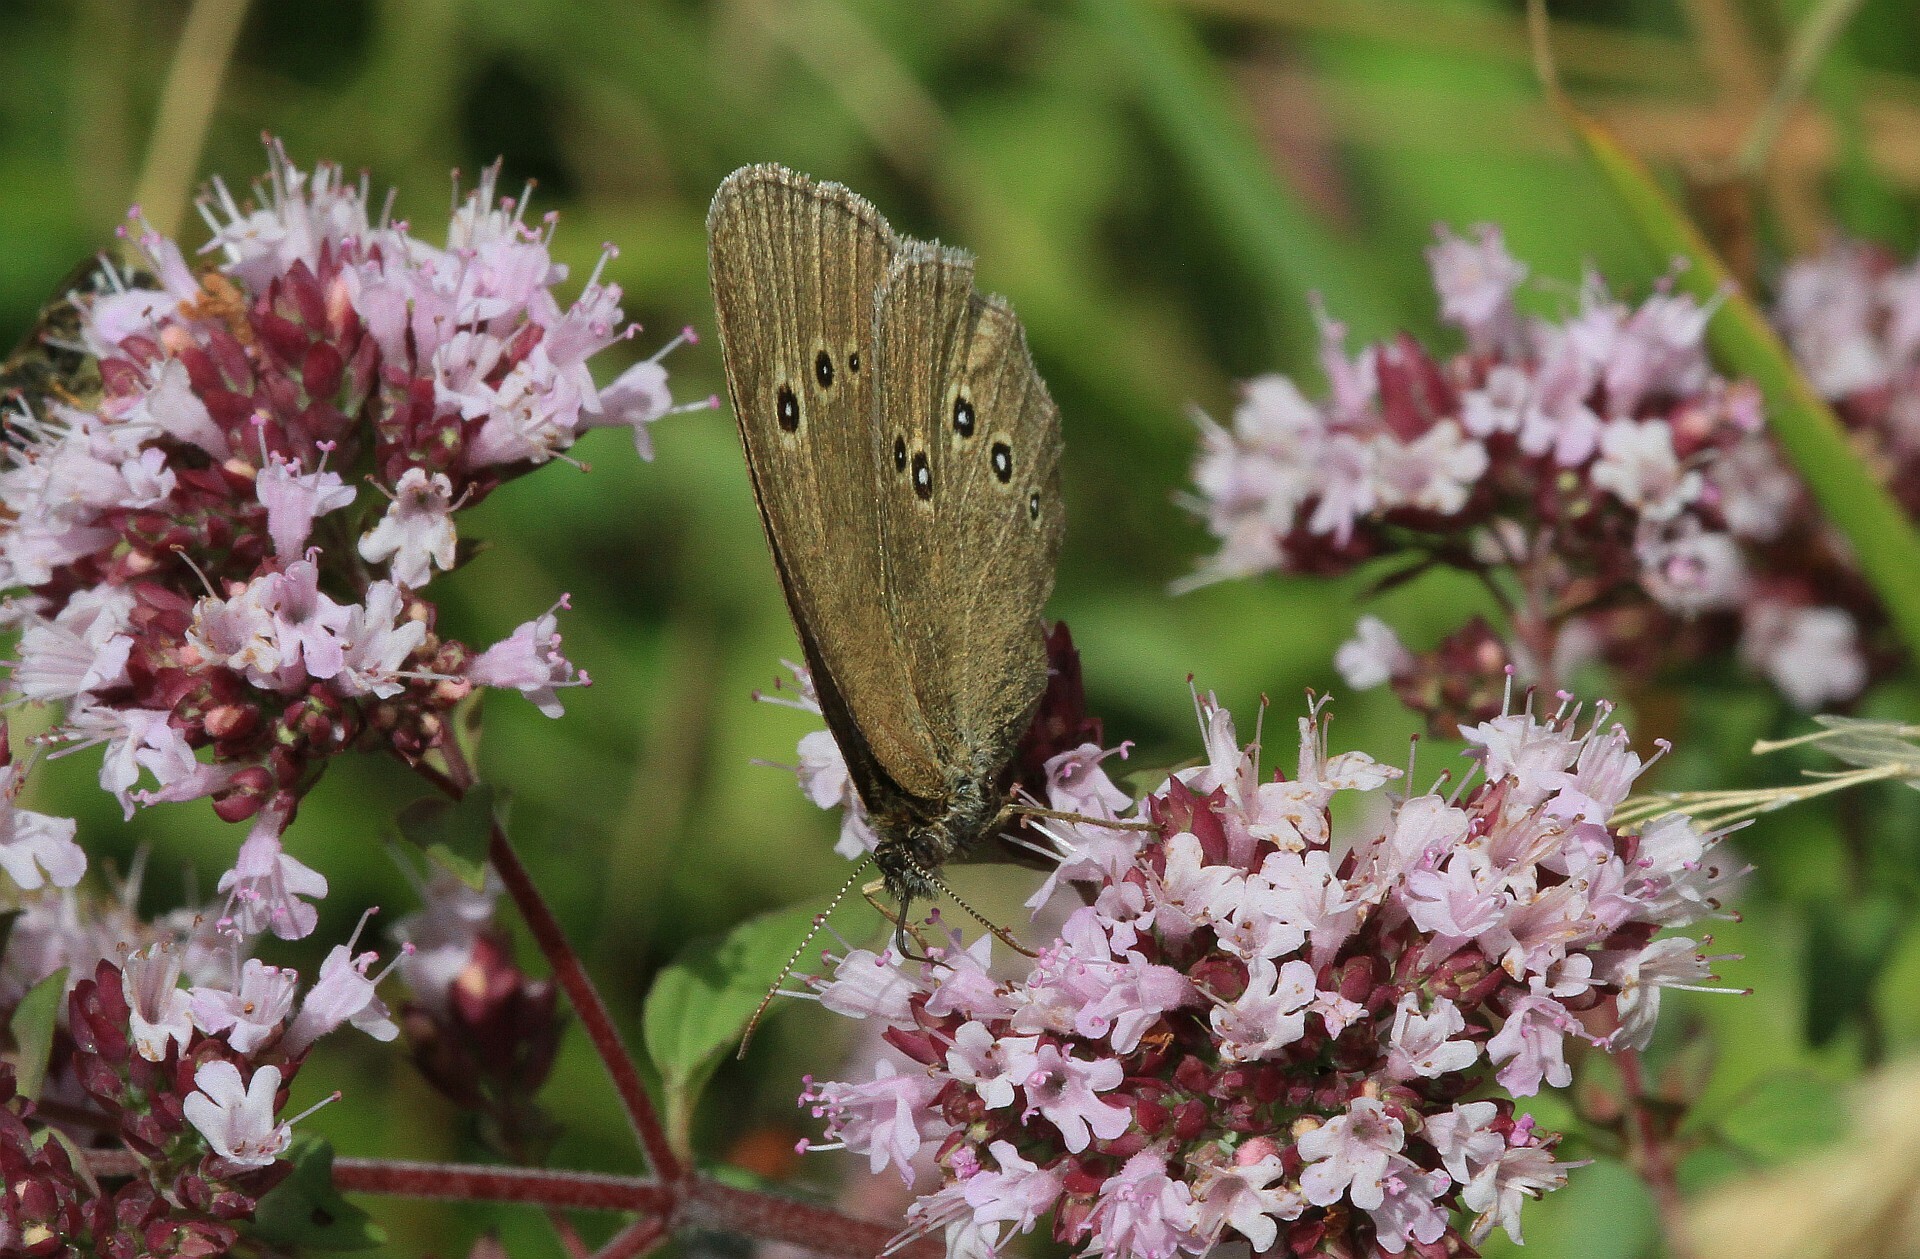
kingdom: Animalia
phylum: Arthropoda
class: Insecta
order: Lepidoptera
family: Nymphalidae
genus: Aphantopus
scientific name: Aphantopus hyperantus
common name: Ringlet
